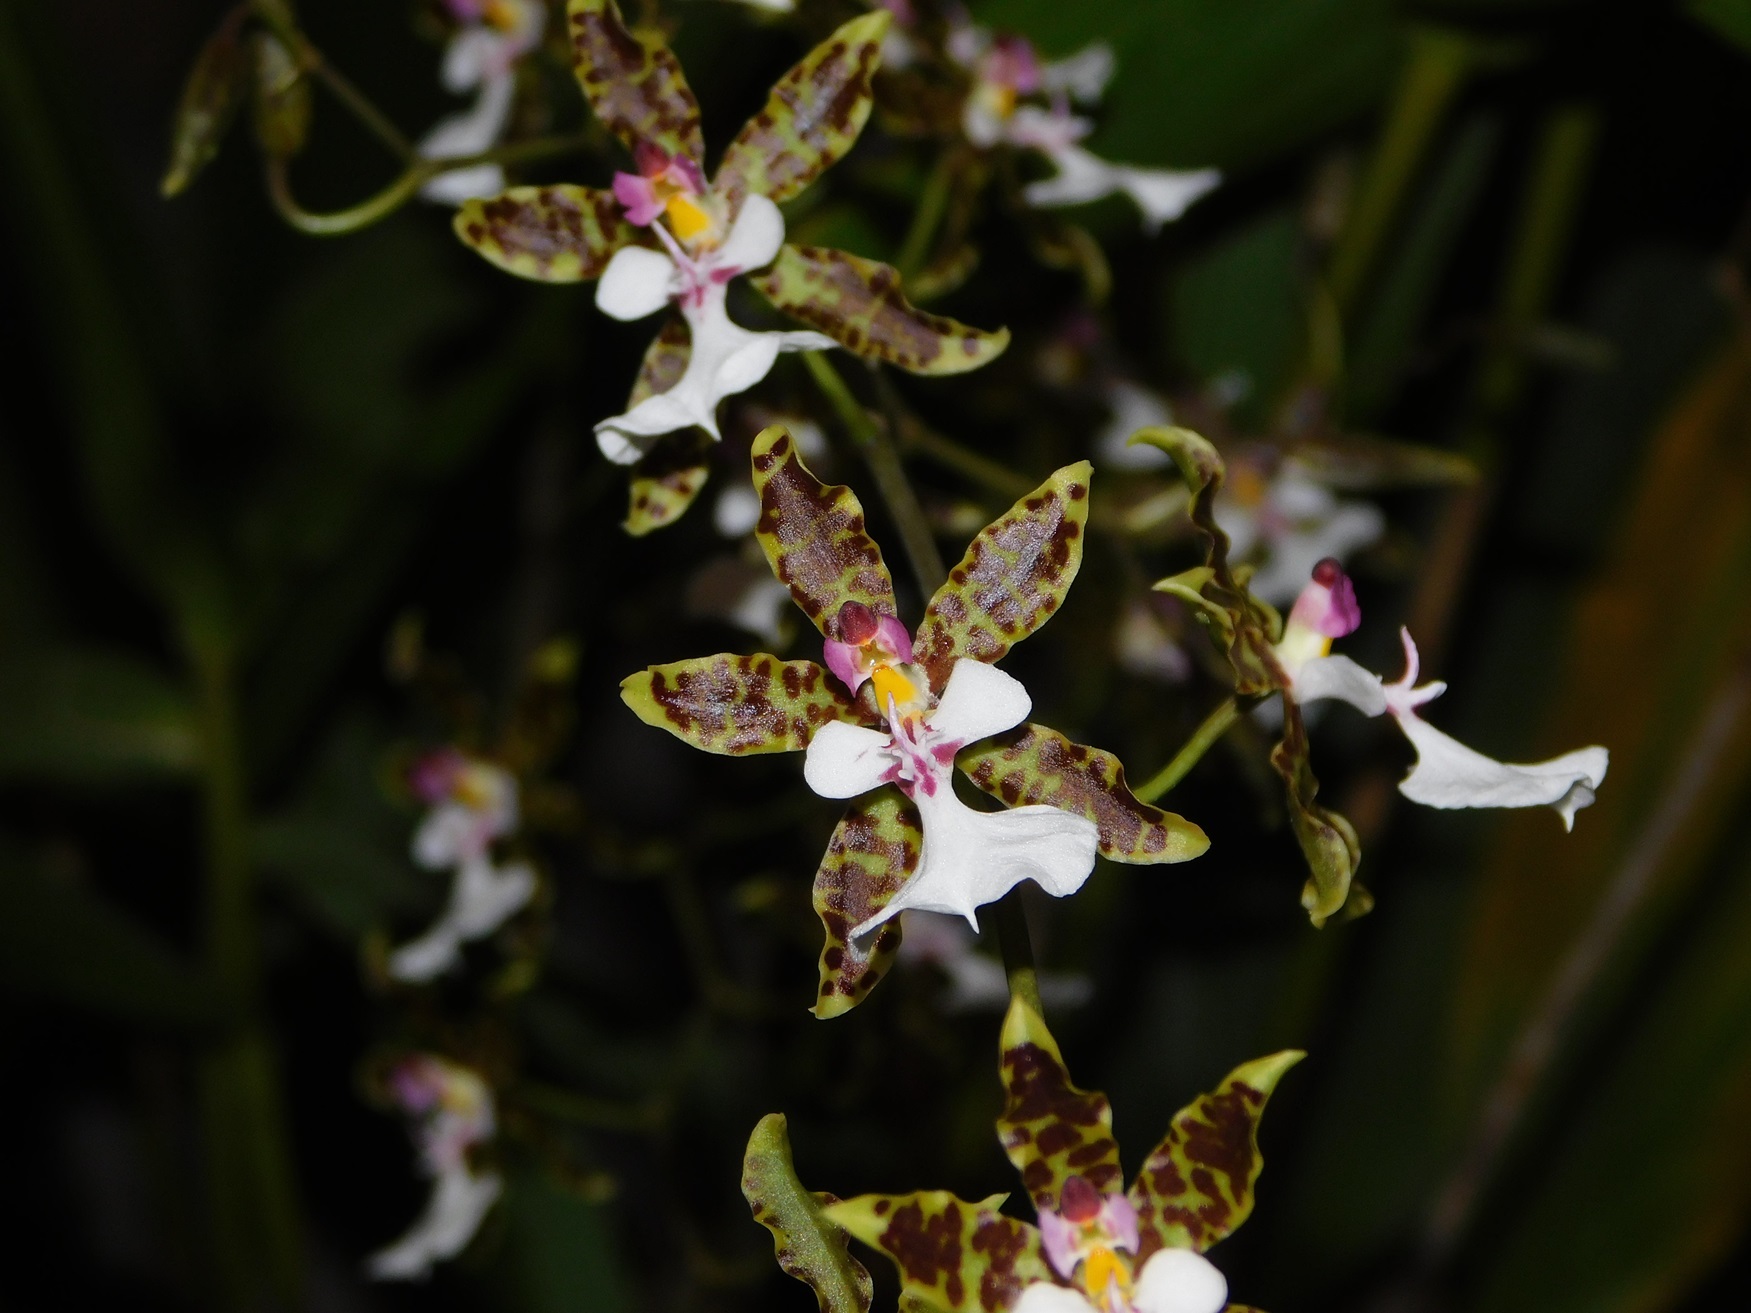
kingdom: Plantae
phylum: Tracheophyta
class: Liliopsida
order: Asparagales
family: Orchidaceae
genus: Oncidium
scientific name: Oncidium leucochilum
